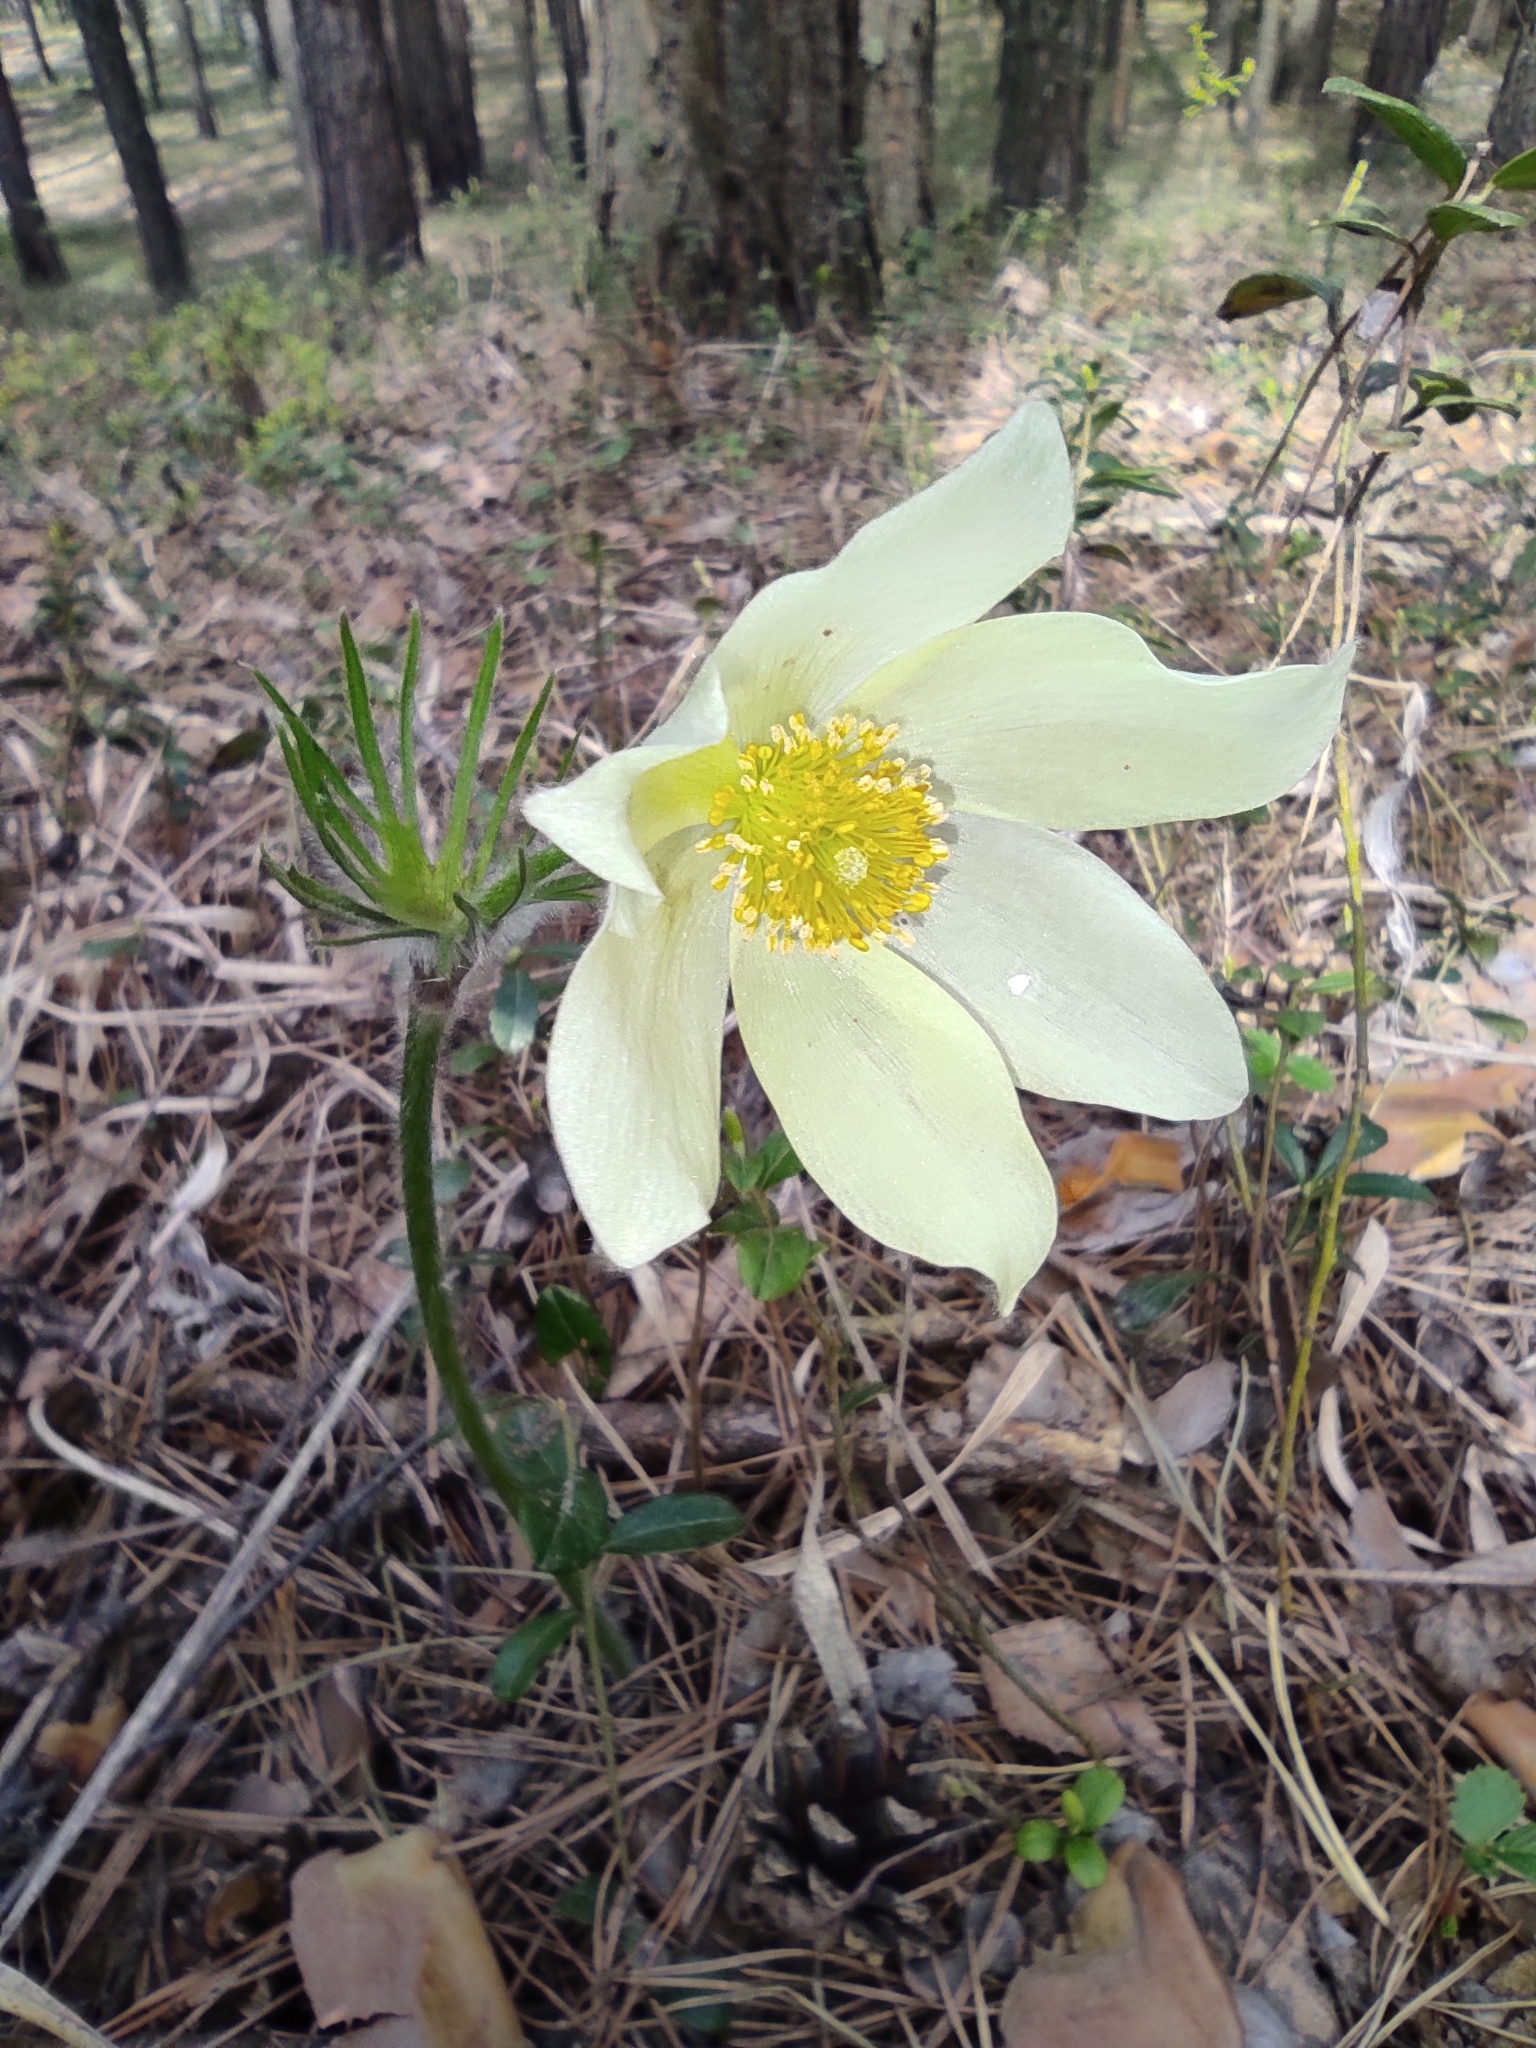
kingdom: Plantae
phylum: Tracheophyta
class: Magnoliopsida
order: Ranunculales
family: Ranunculaceae
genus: Pulsatilla
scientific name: Pulsatilla patens
